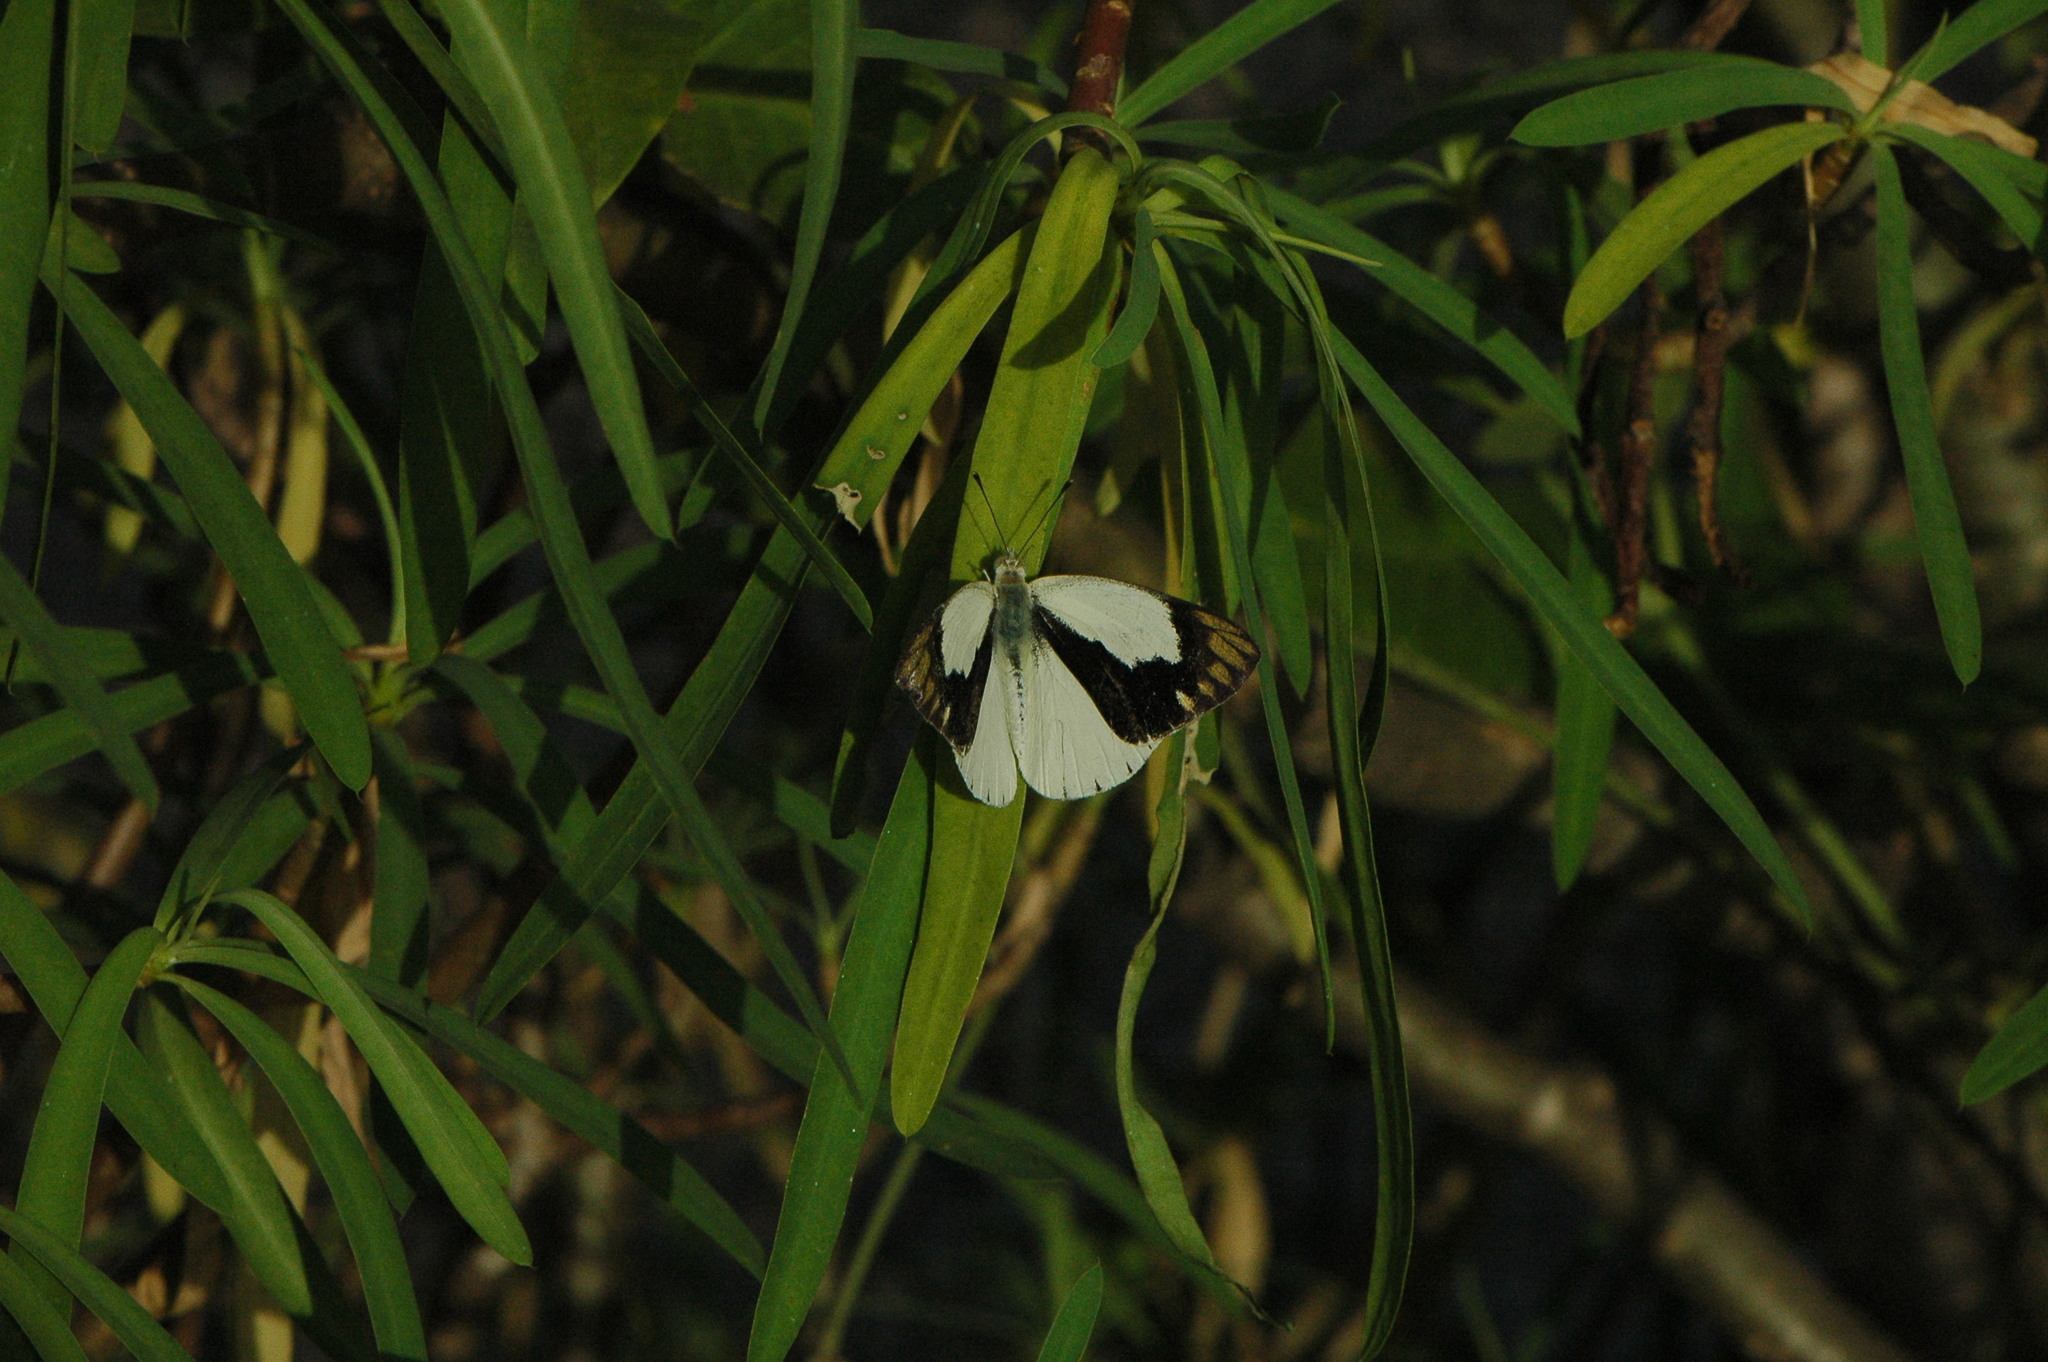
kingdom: Animalia
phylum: Arthropoda
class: Insecta
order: Lepidoptera
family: Pieridae
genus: Colotis
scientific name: Colotis eris
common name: Banded gold tip
